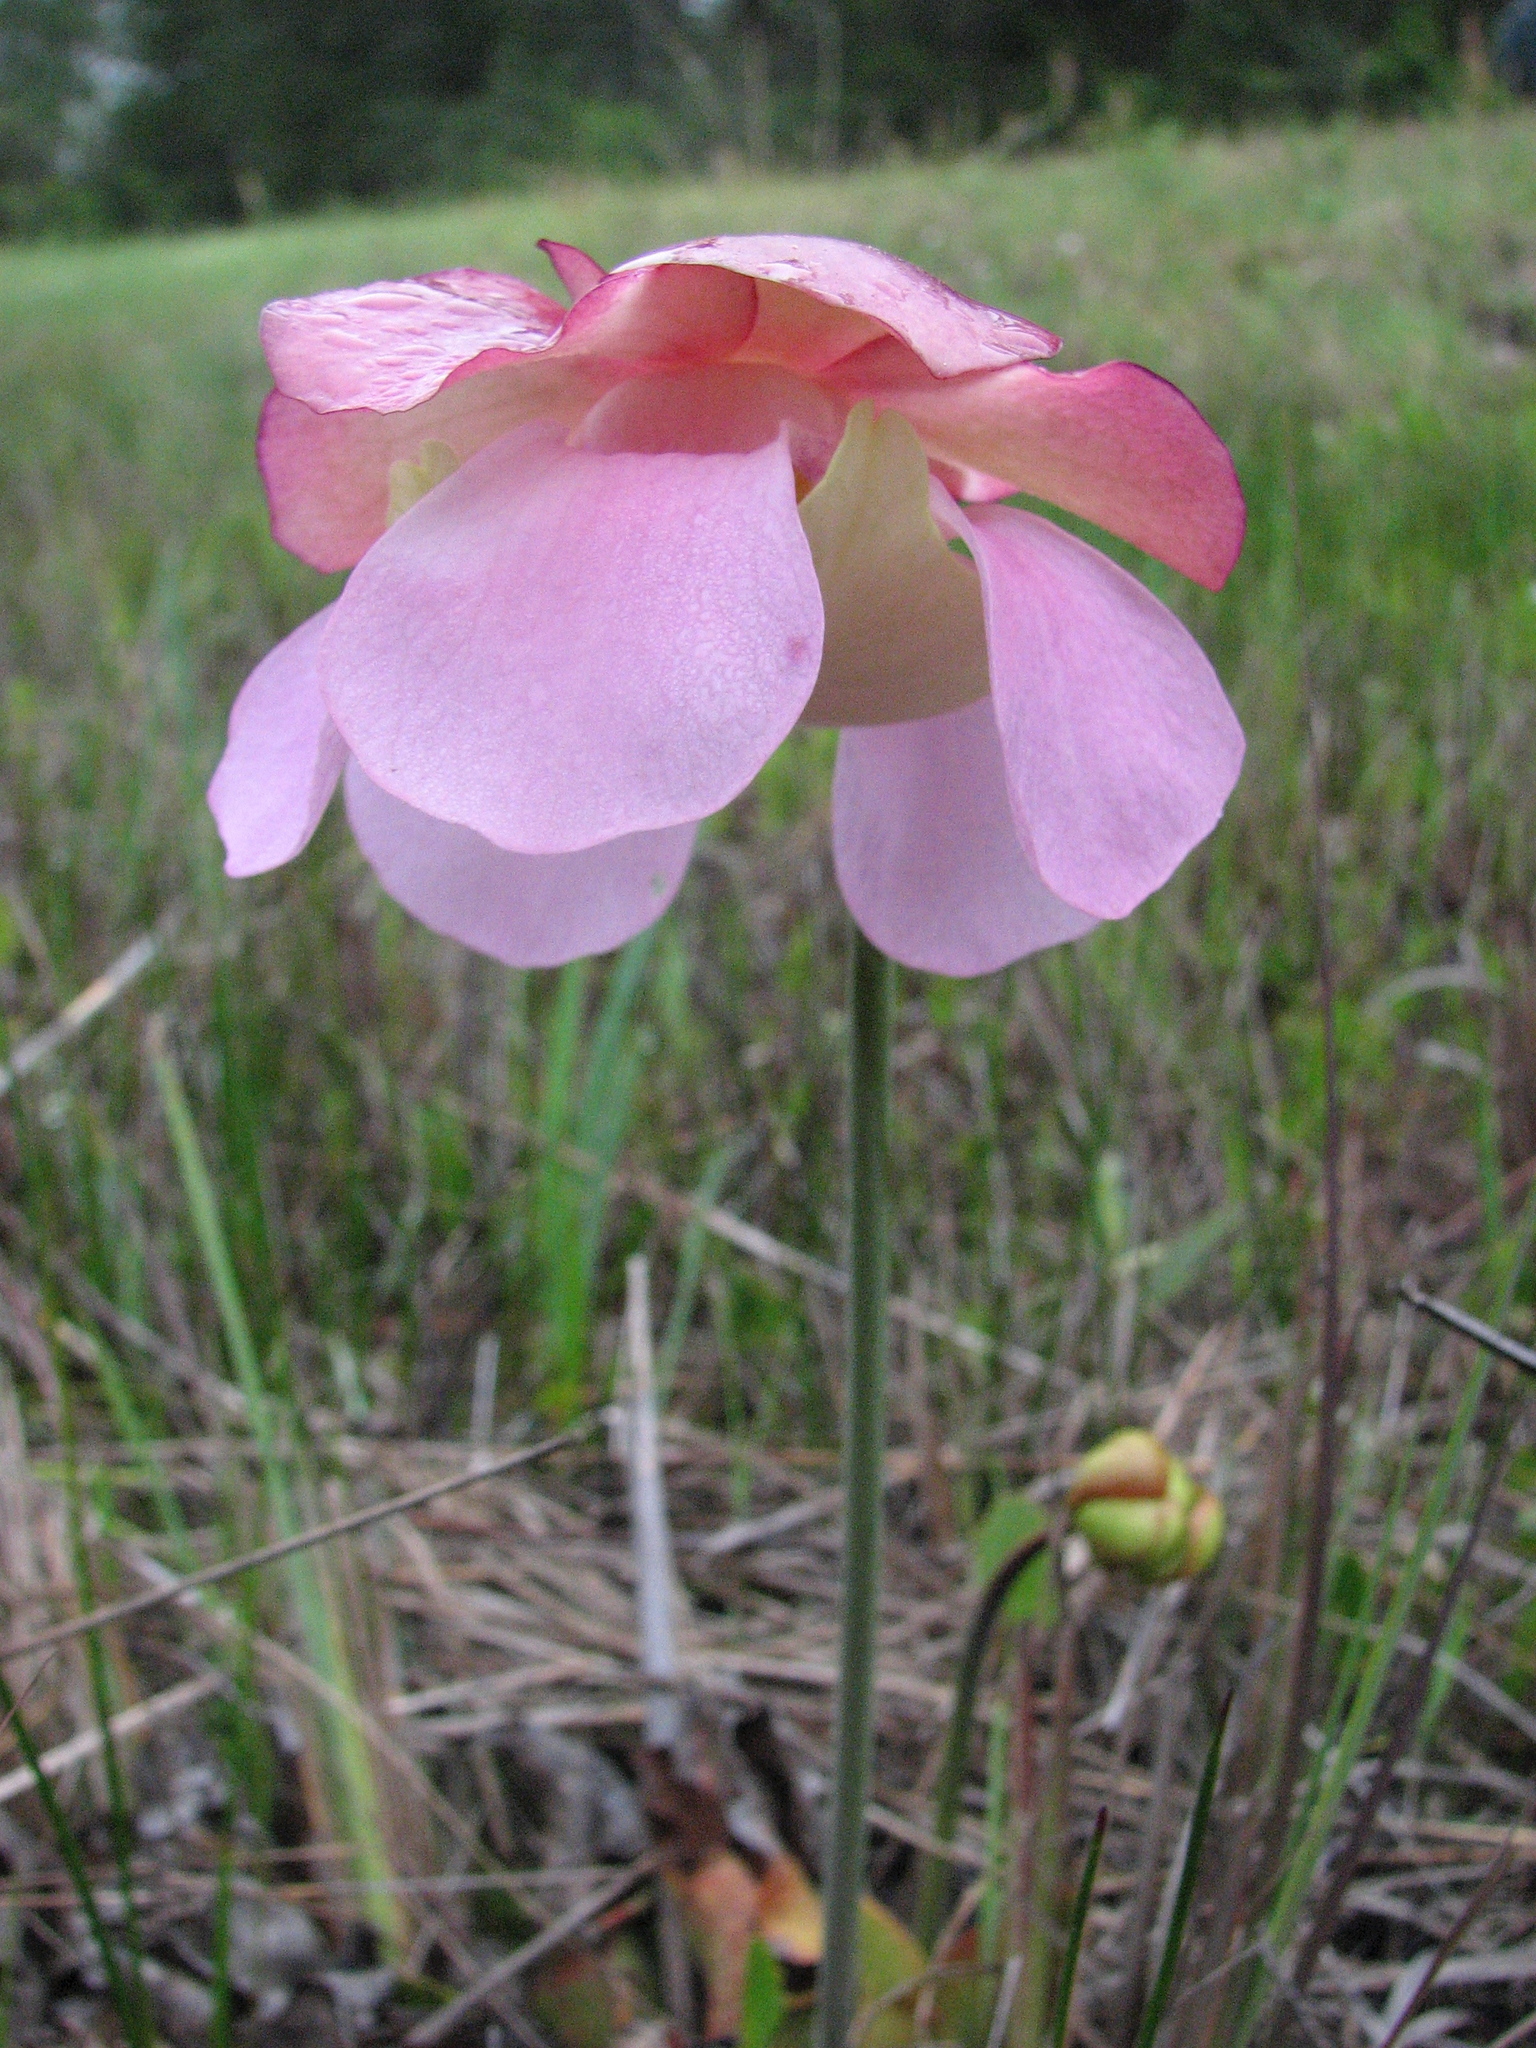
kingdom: Plantae
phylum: Tracheophyta
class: Magnoliopsida
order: Ericales
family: Sarraceniaceae
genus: Sarracenia
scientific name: Sarracenia rosea
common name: Pink pitcherplant
